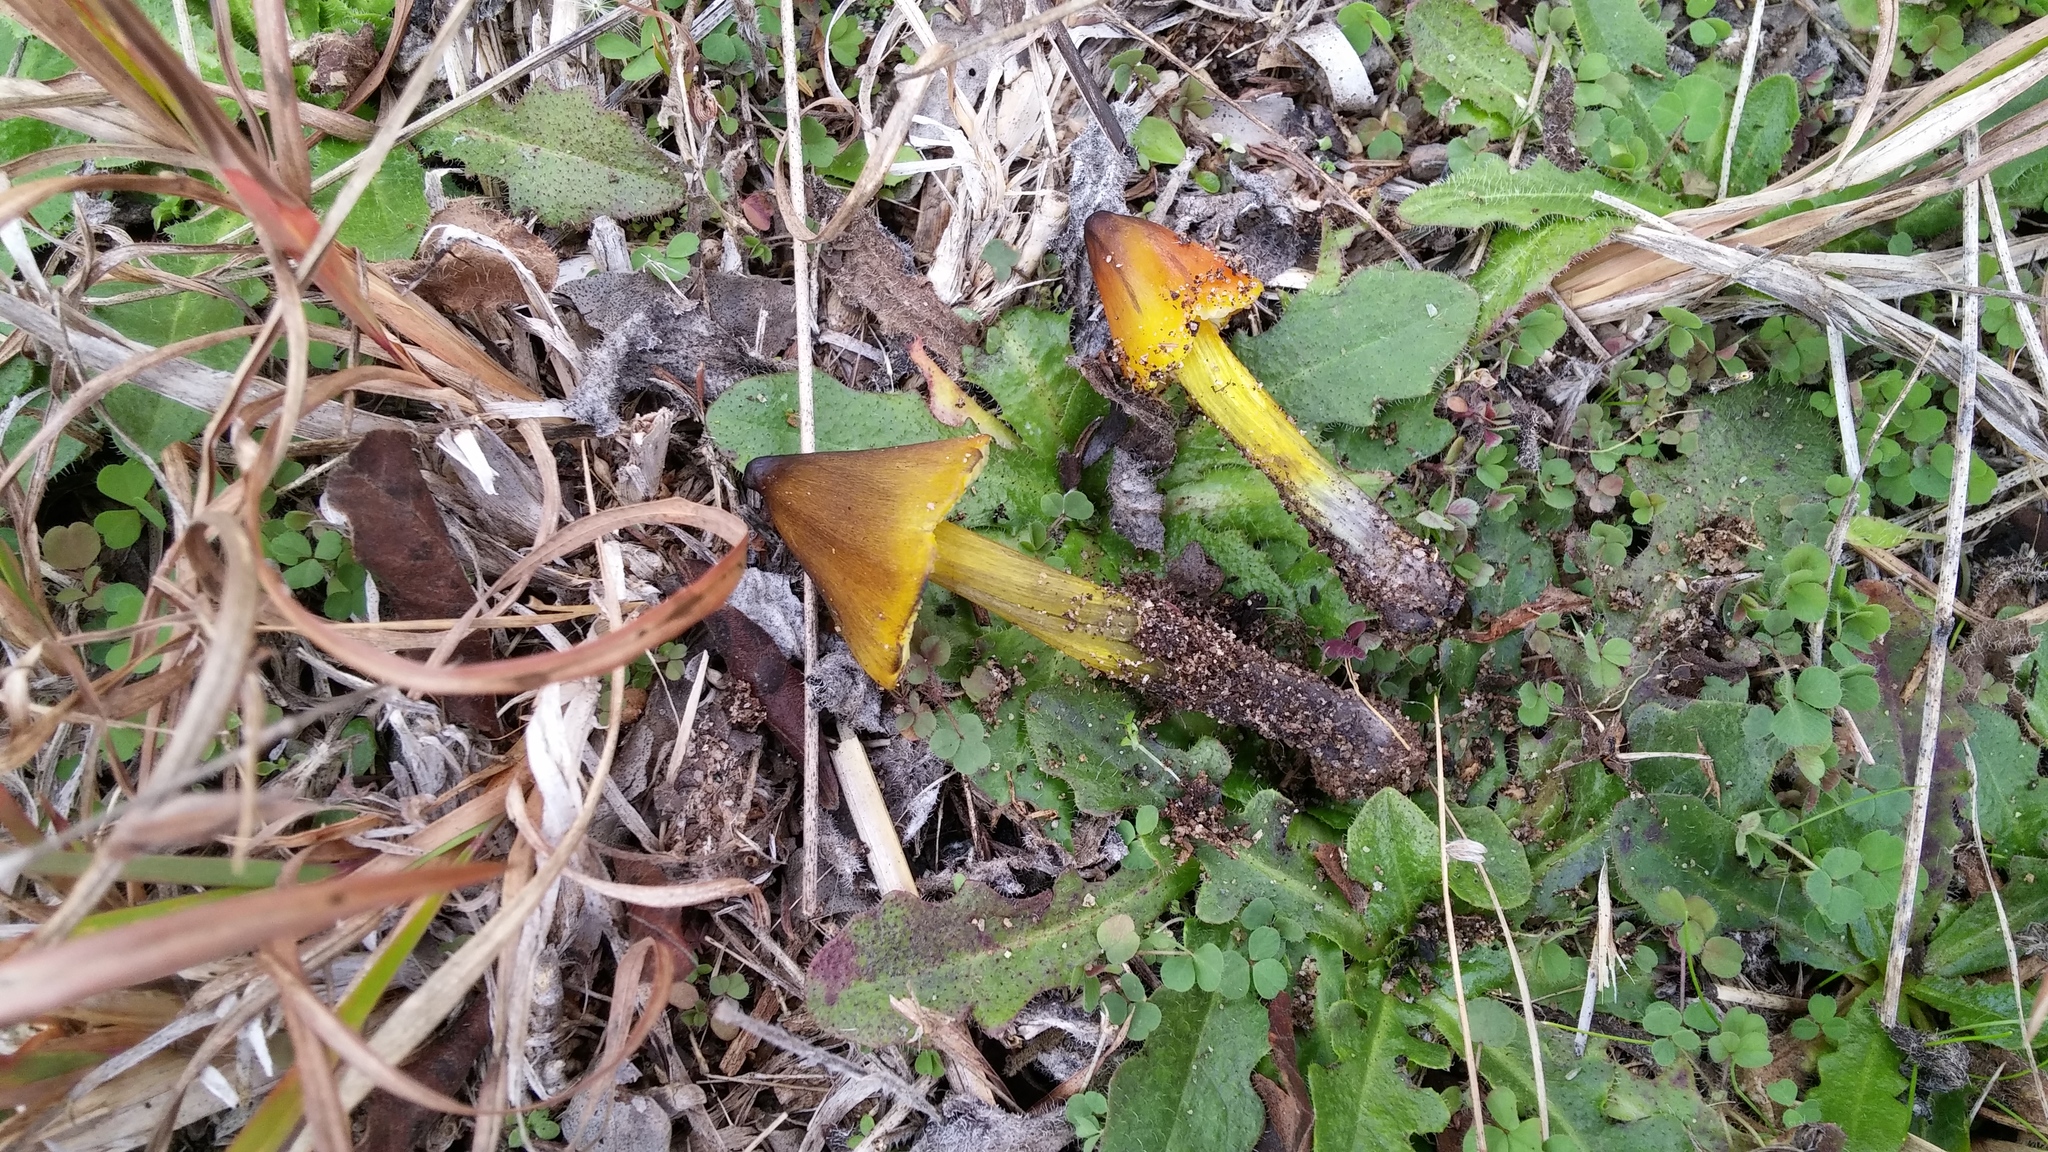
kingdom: Fungi
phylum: Basidiomycota
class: Agaricomycetes
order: Agaricales
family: Hygrophoraceae
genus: Hygrocybe
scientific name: Hygrocybe conica
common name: Blackening wax-cap
